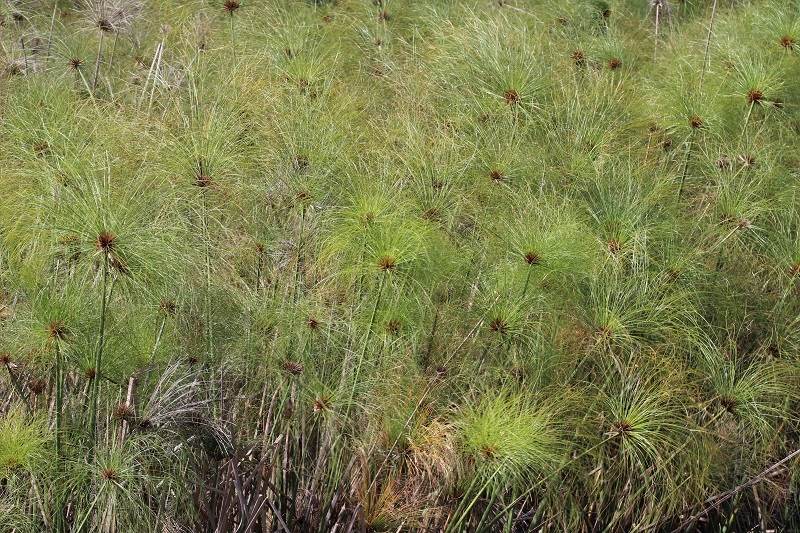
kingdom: Plantae
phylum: Tracheophyta
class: Liliopsida
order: Poales
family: Cyperaceae
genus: Cyperus
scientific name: Cyperus papyrus
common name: Papyrus
